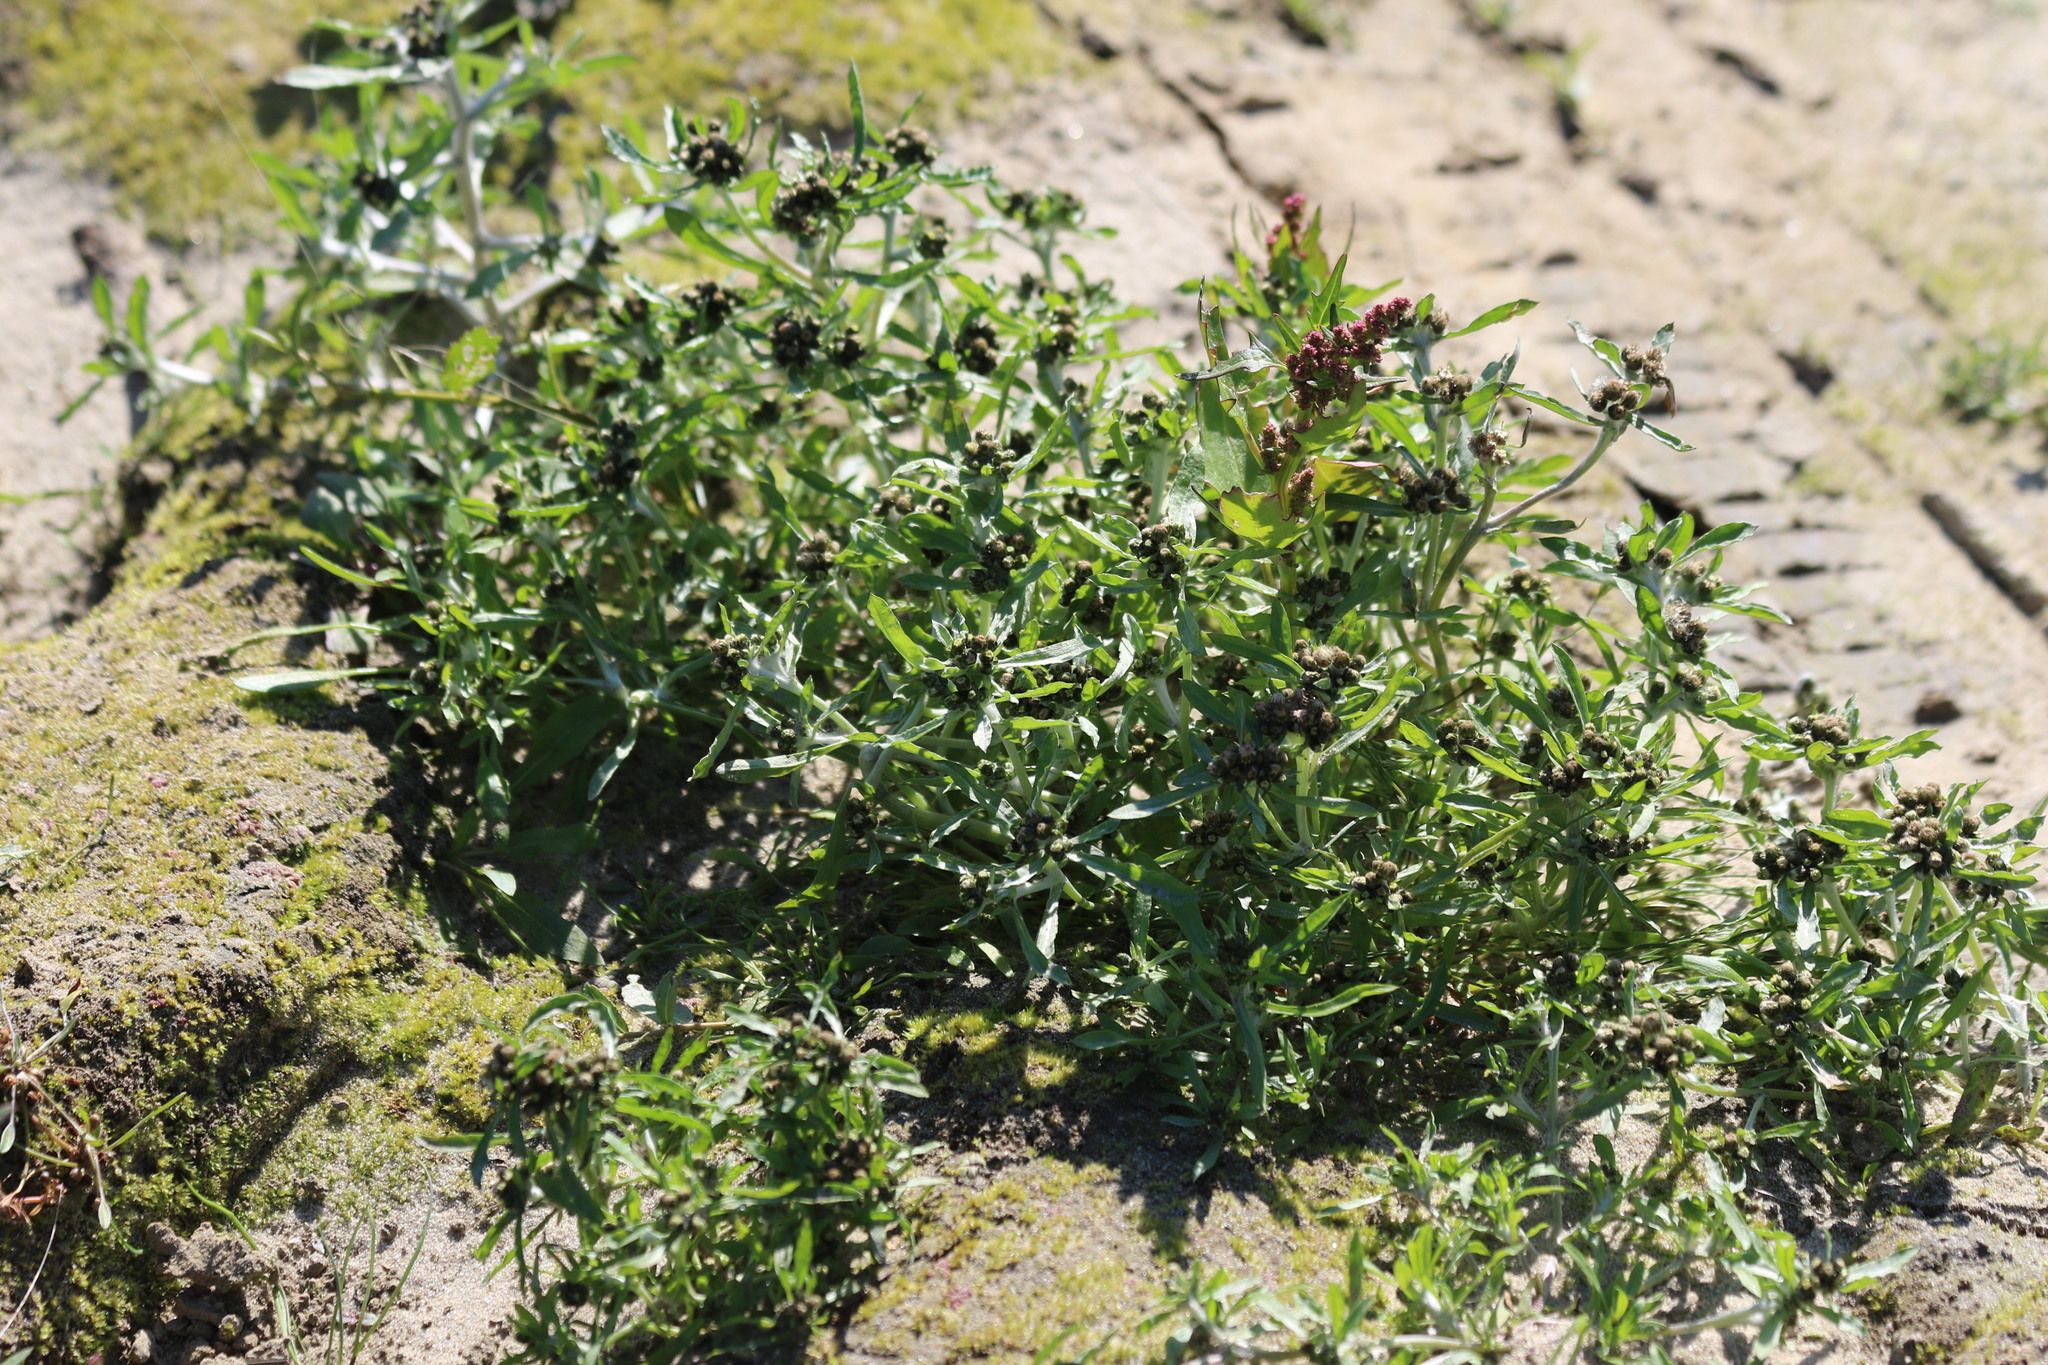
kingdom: Plantae
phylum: Tracheophyta
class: Magnoliopsida
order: Asterales
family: Asteraceae
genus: Gnaphalium
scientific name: Gnaphalium uliginosum
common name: Marsh cudweed
